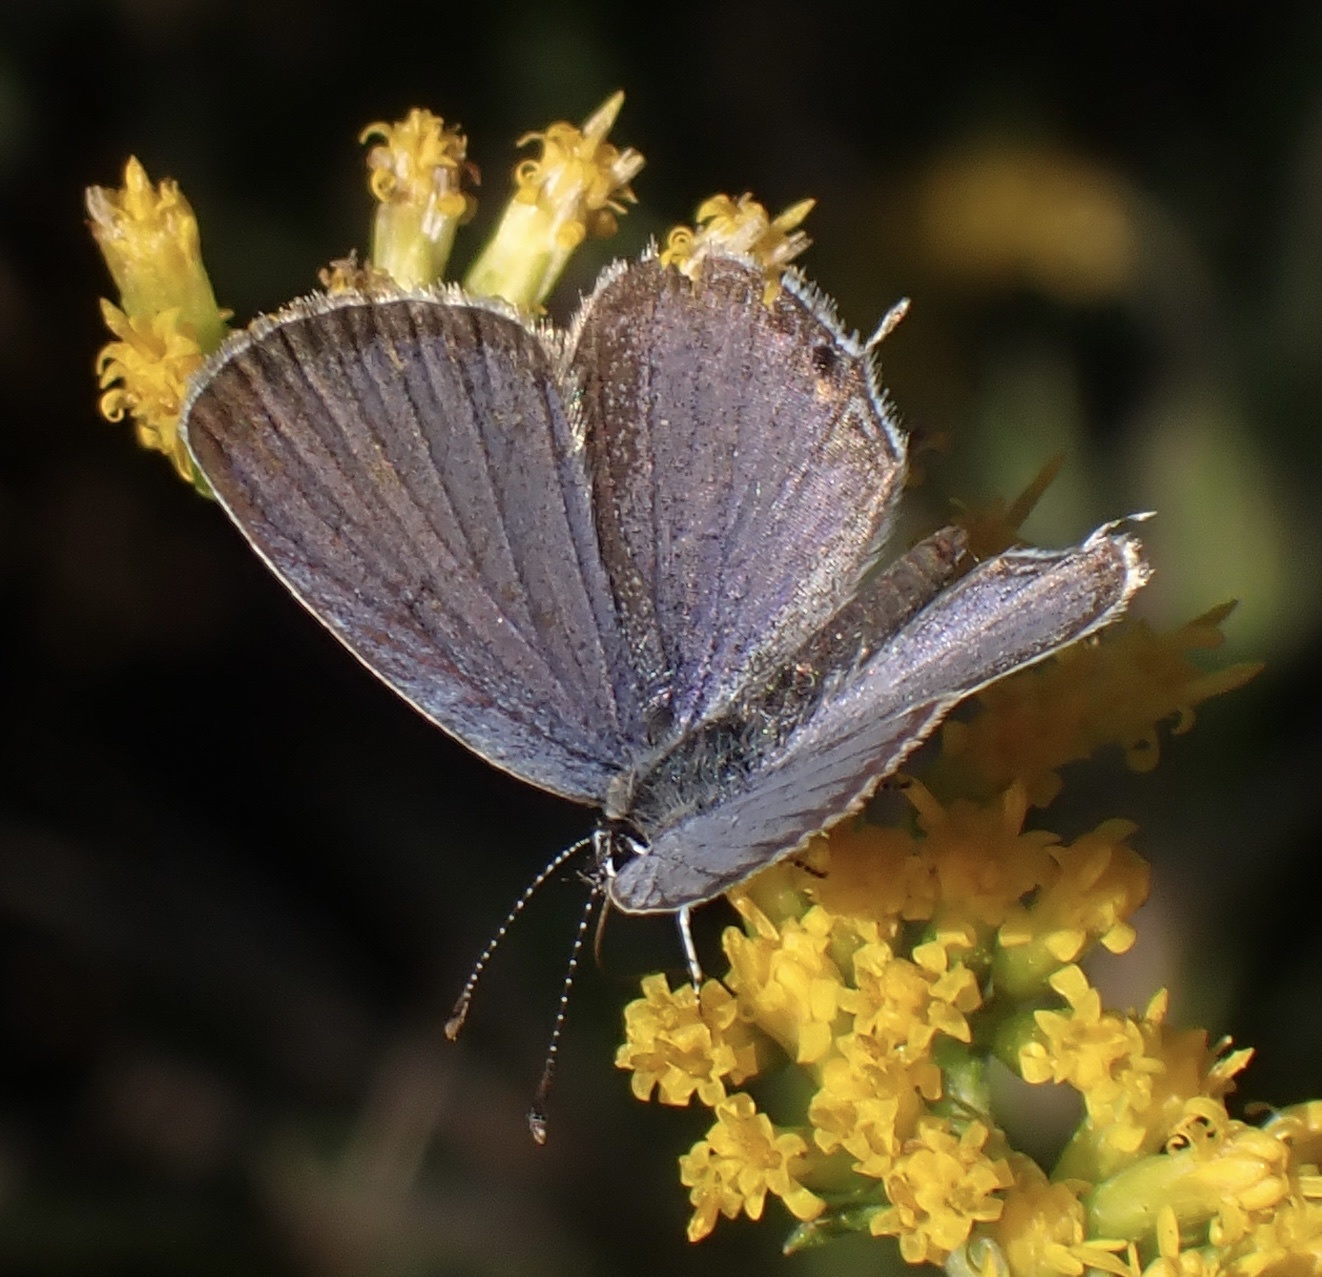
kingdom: Animalia
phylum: Arthropoda
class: Insecta
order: Lepidoptera
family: Lycaenidae
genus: Elkalyce
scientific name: Elkalyce comyntas
